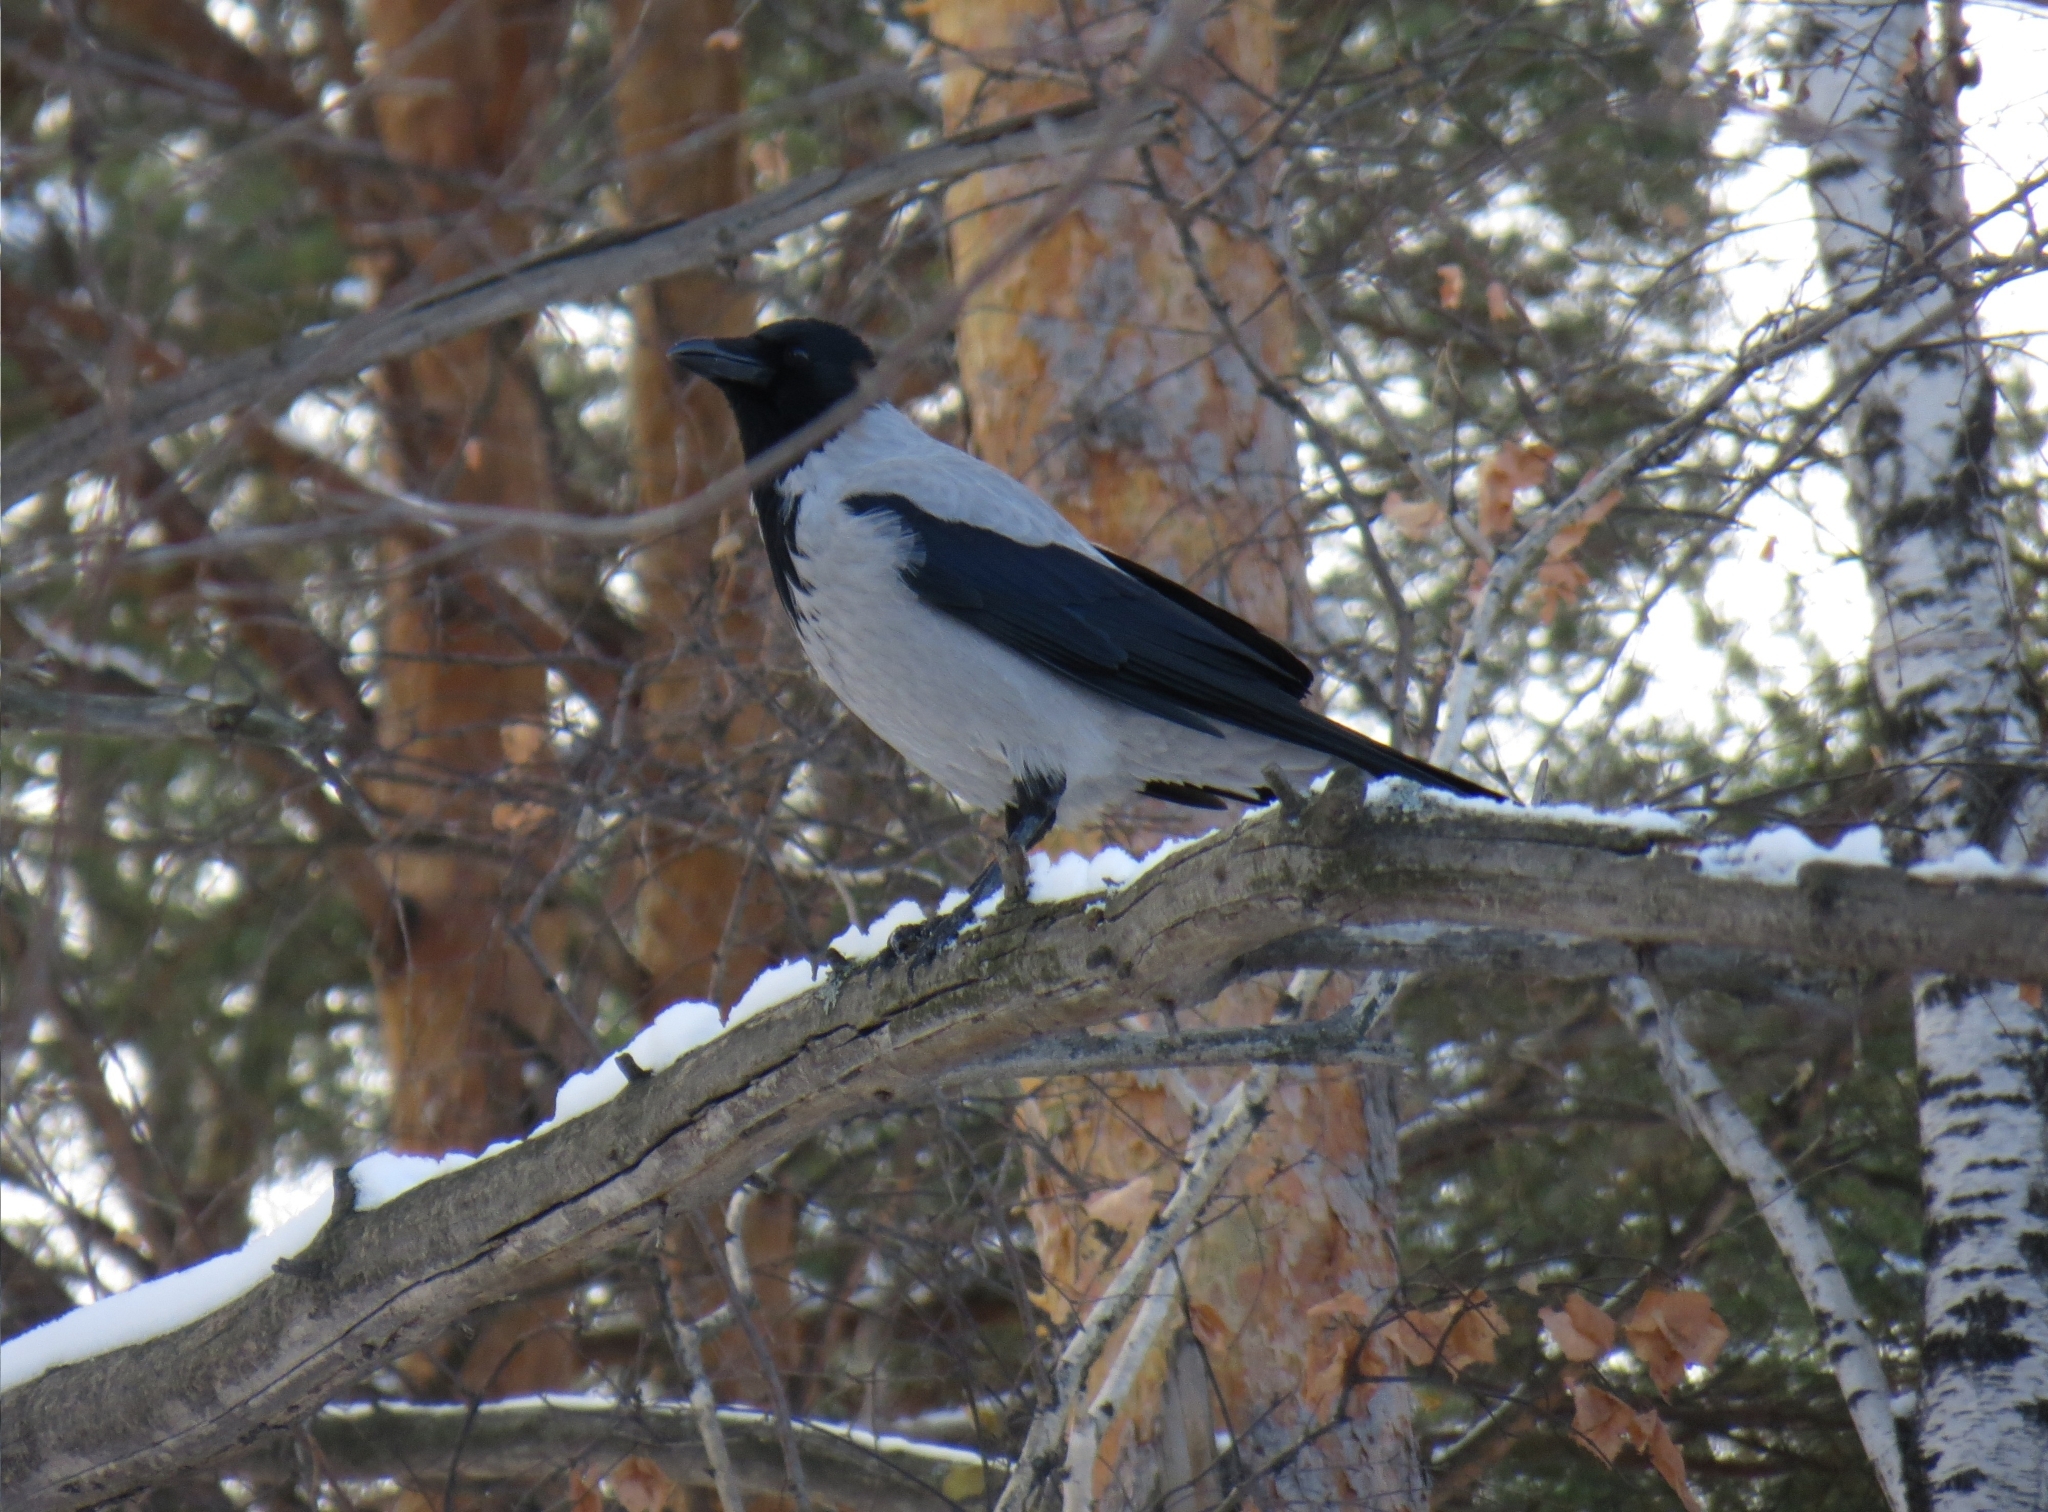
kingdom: Animalia
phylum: Chordata
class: Aves
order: Passeriformes
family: Corvidae
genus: Corvus
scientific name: Corvus cornix
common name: Hooded crow
